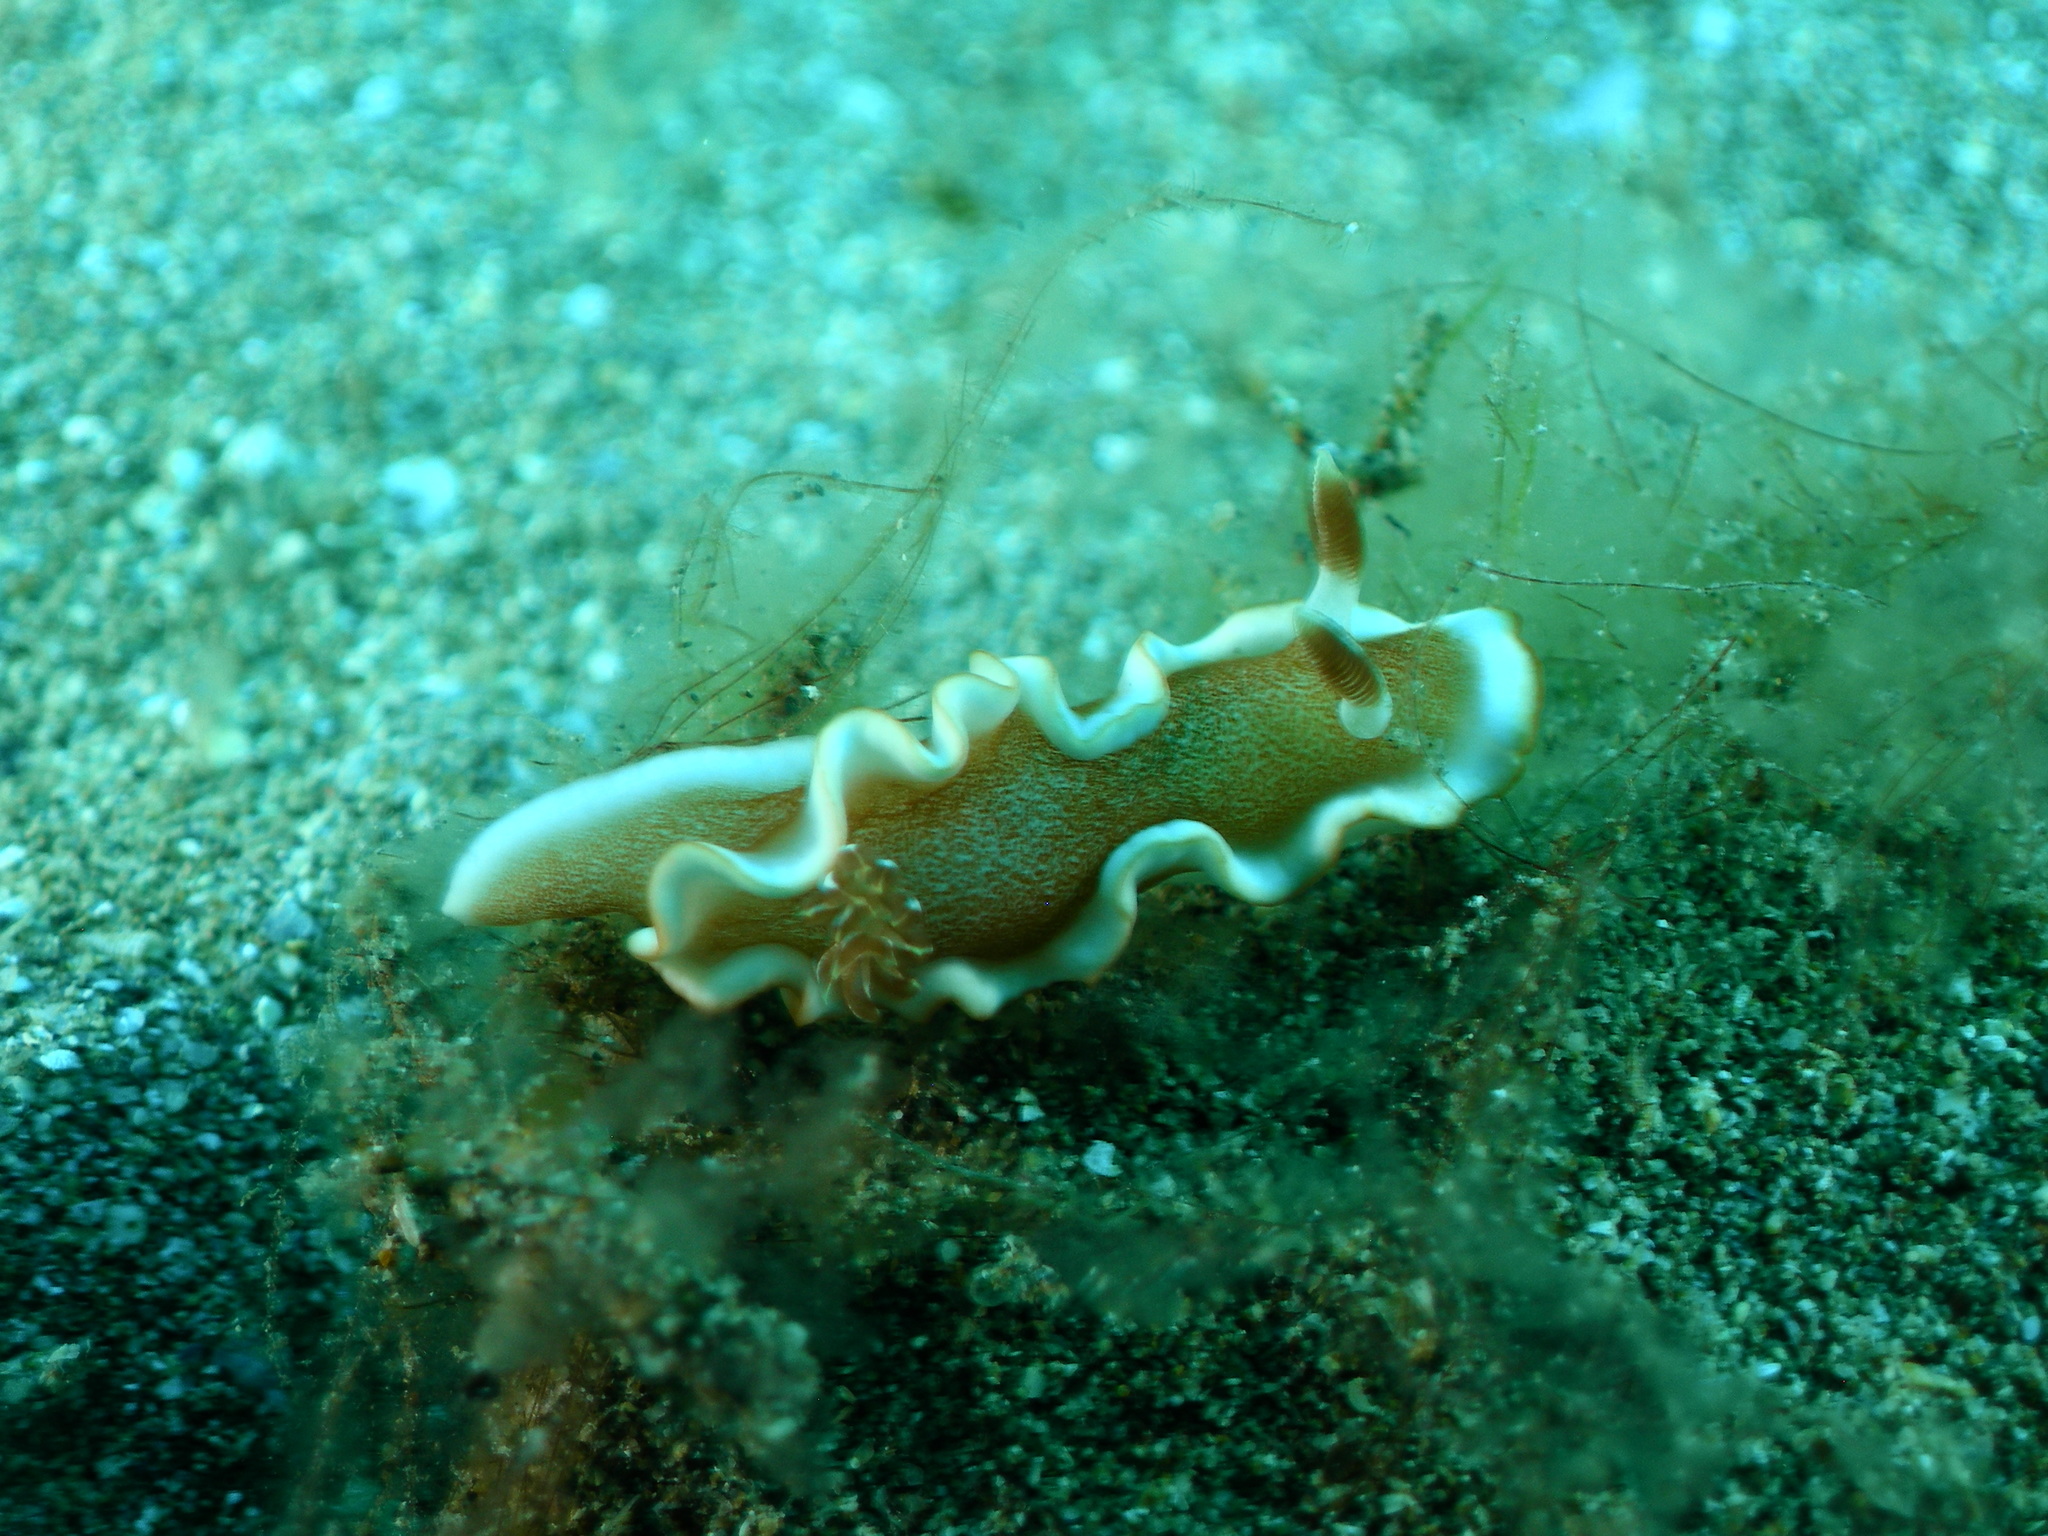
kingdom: Animalia
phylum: Mollusca
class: Gastropoda
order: Nudibranchia
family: Chromodorididae
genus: Glossodoris
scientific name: Glossodoris rufomarginata
